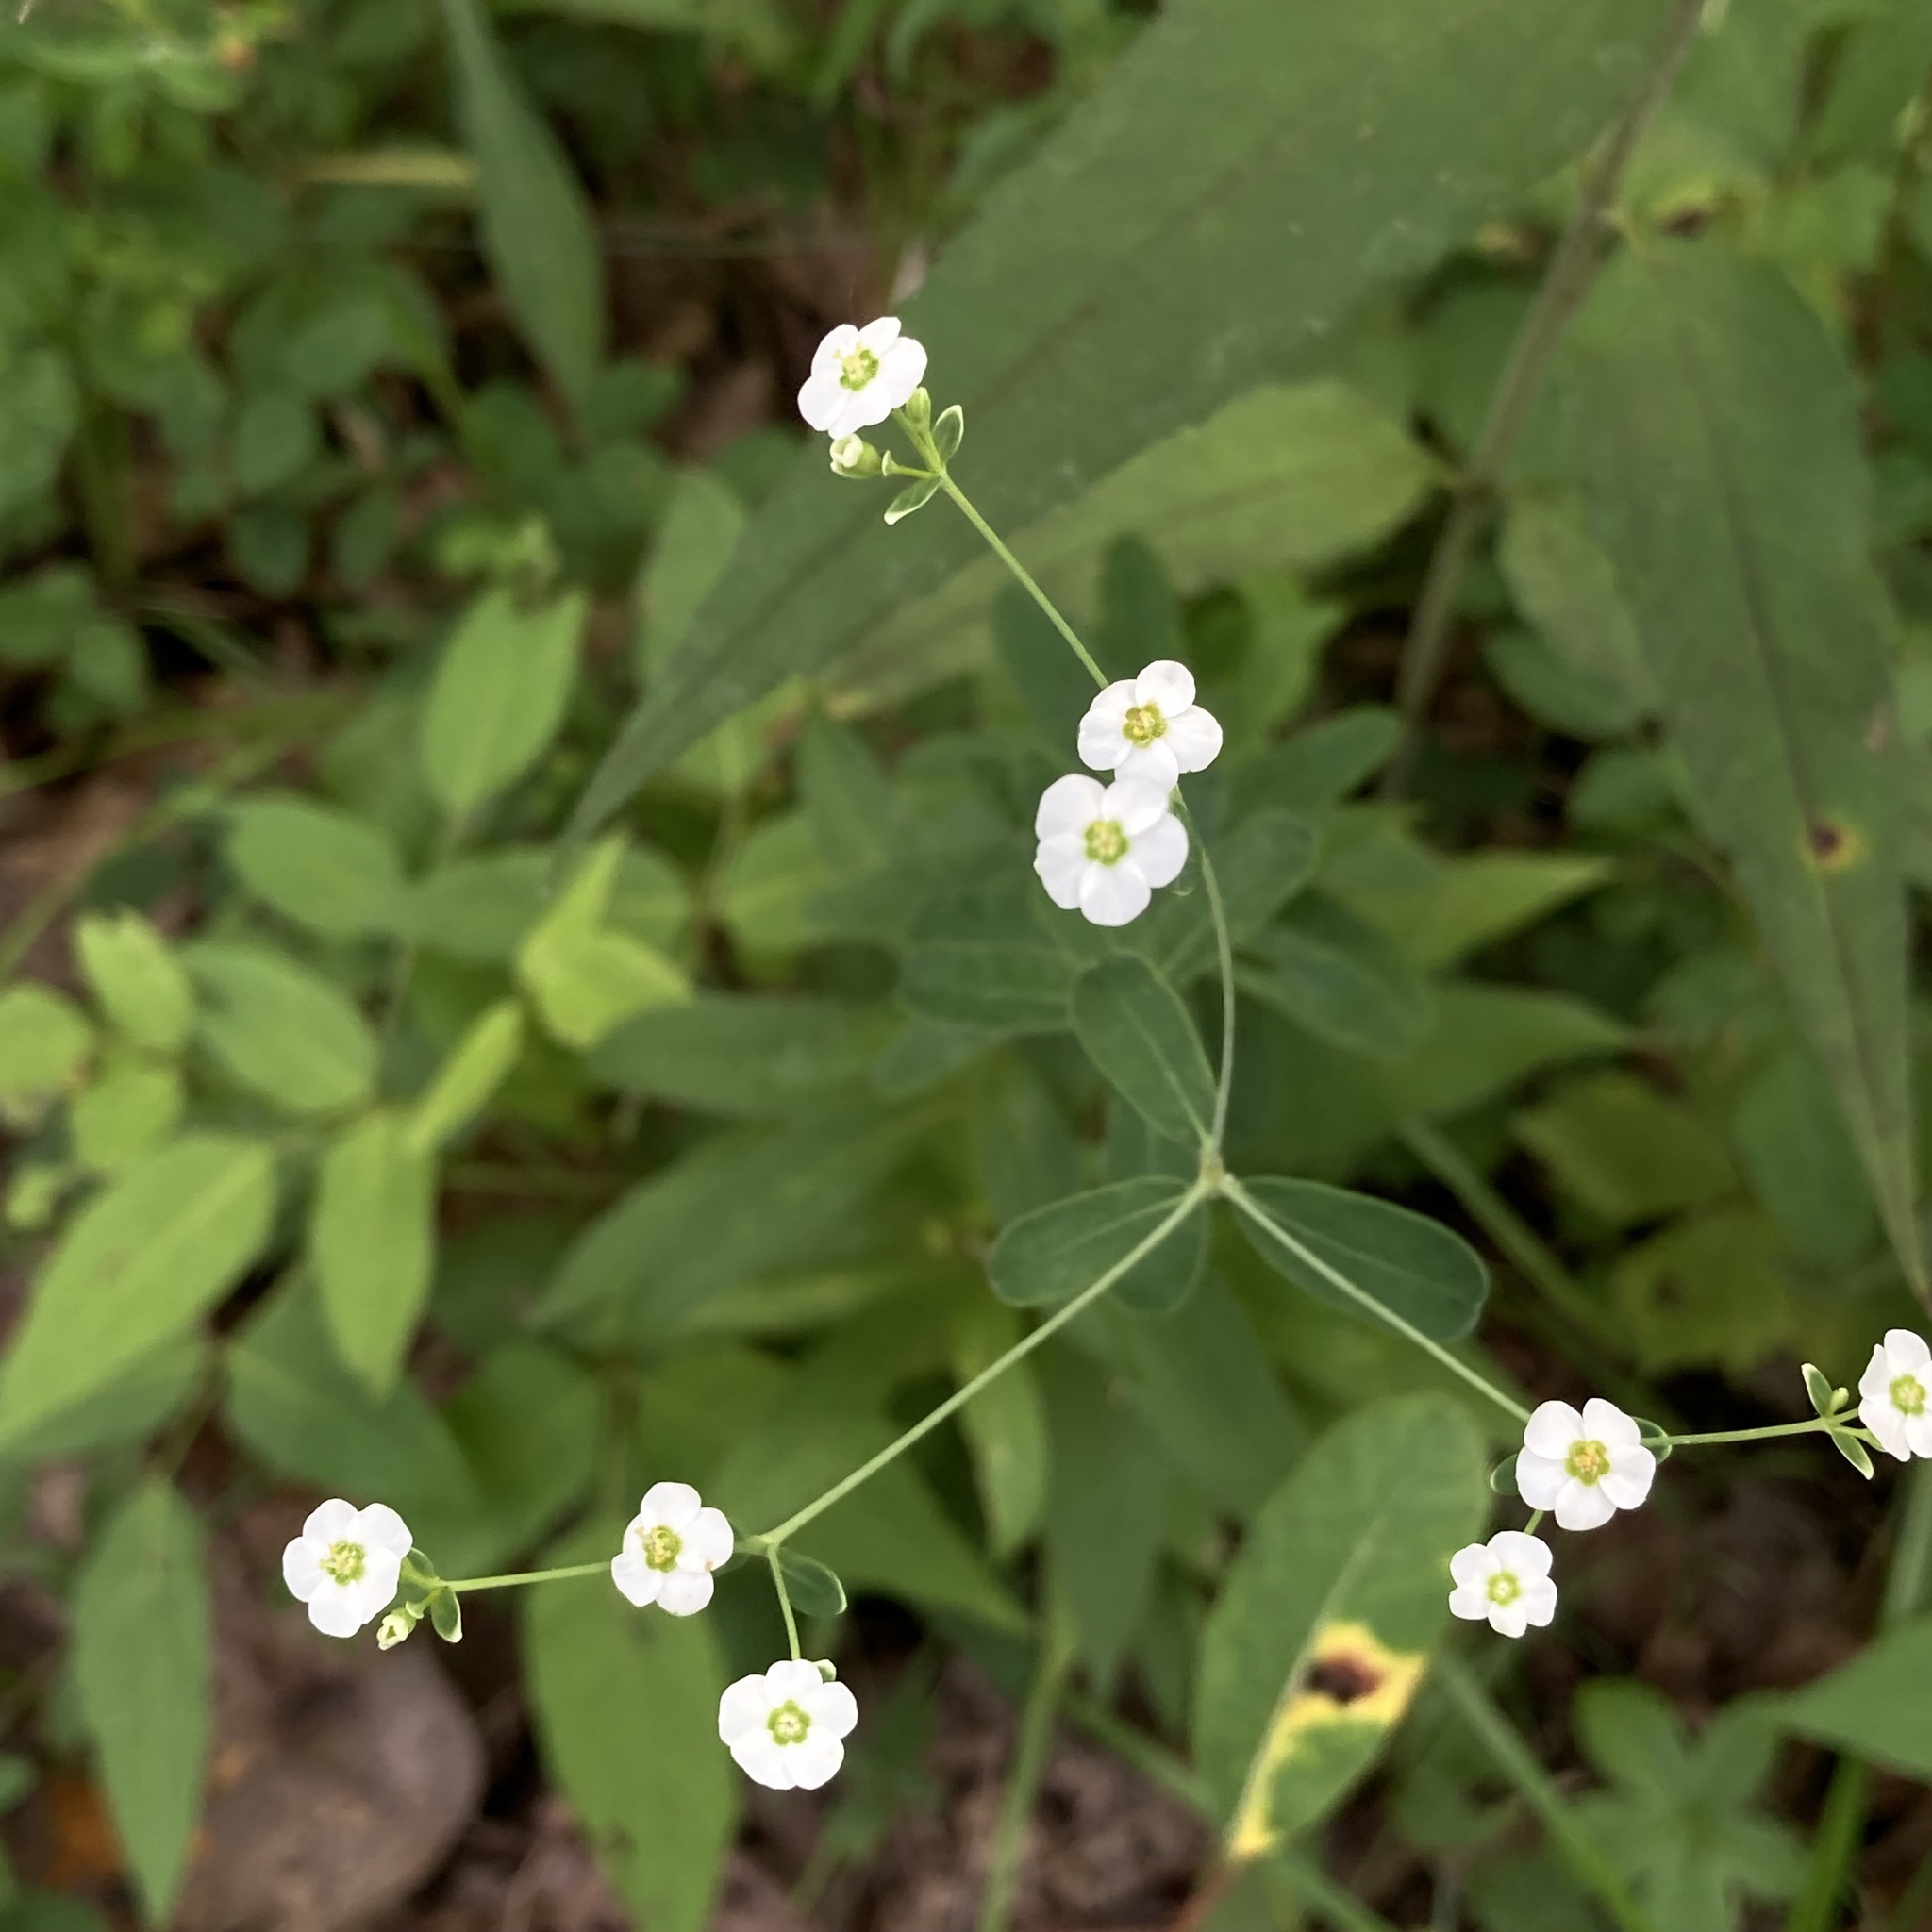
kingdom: Plantae
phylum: Tracheophyta
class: Magnoliopsida
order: Malpighiales
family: Euphorbiaceae
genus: Euphorbia
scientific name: Euphorbia corollata
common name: Flowering spurge
